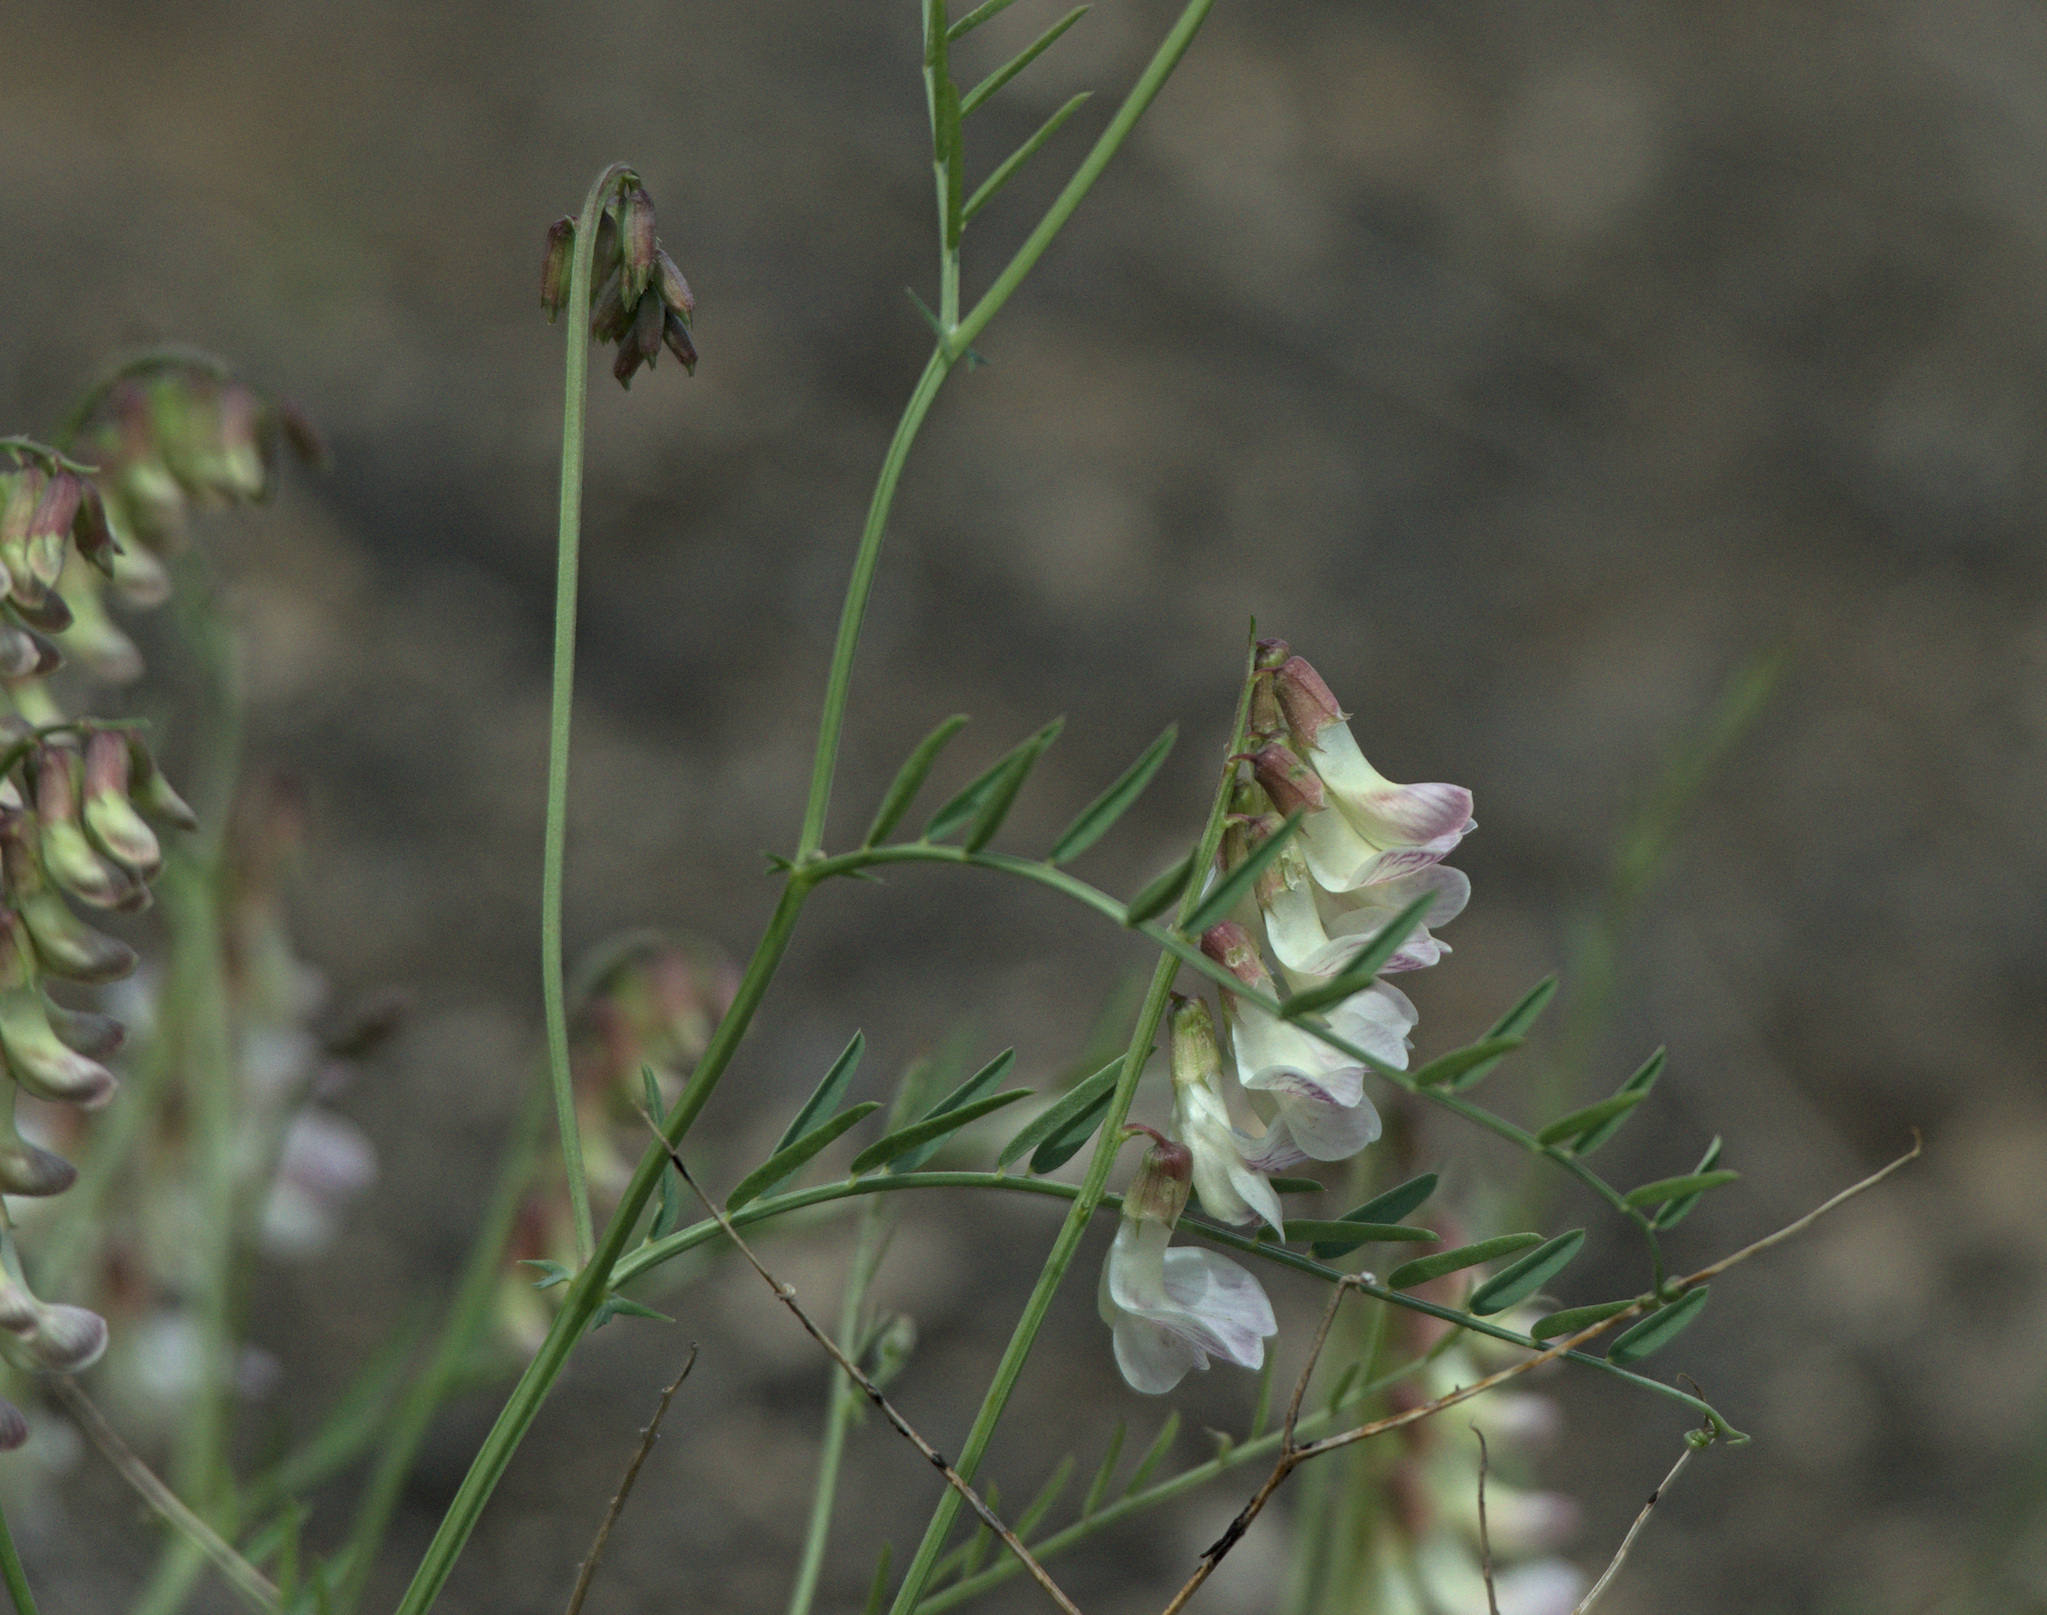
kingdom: Plantae
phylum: Tracheophyta
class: Magnoliopsida
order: Fabales
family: Fabaceae
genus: Vicia
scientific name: Vicia costata
